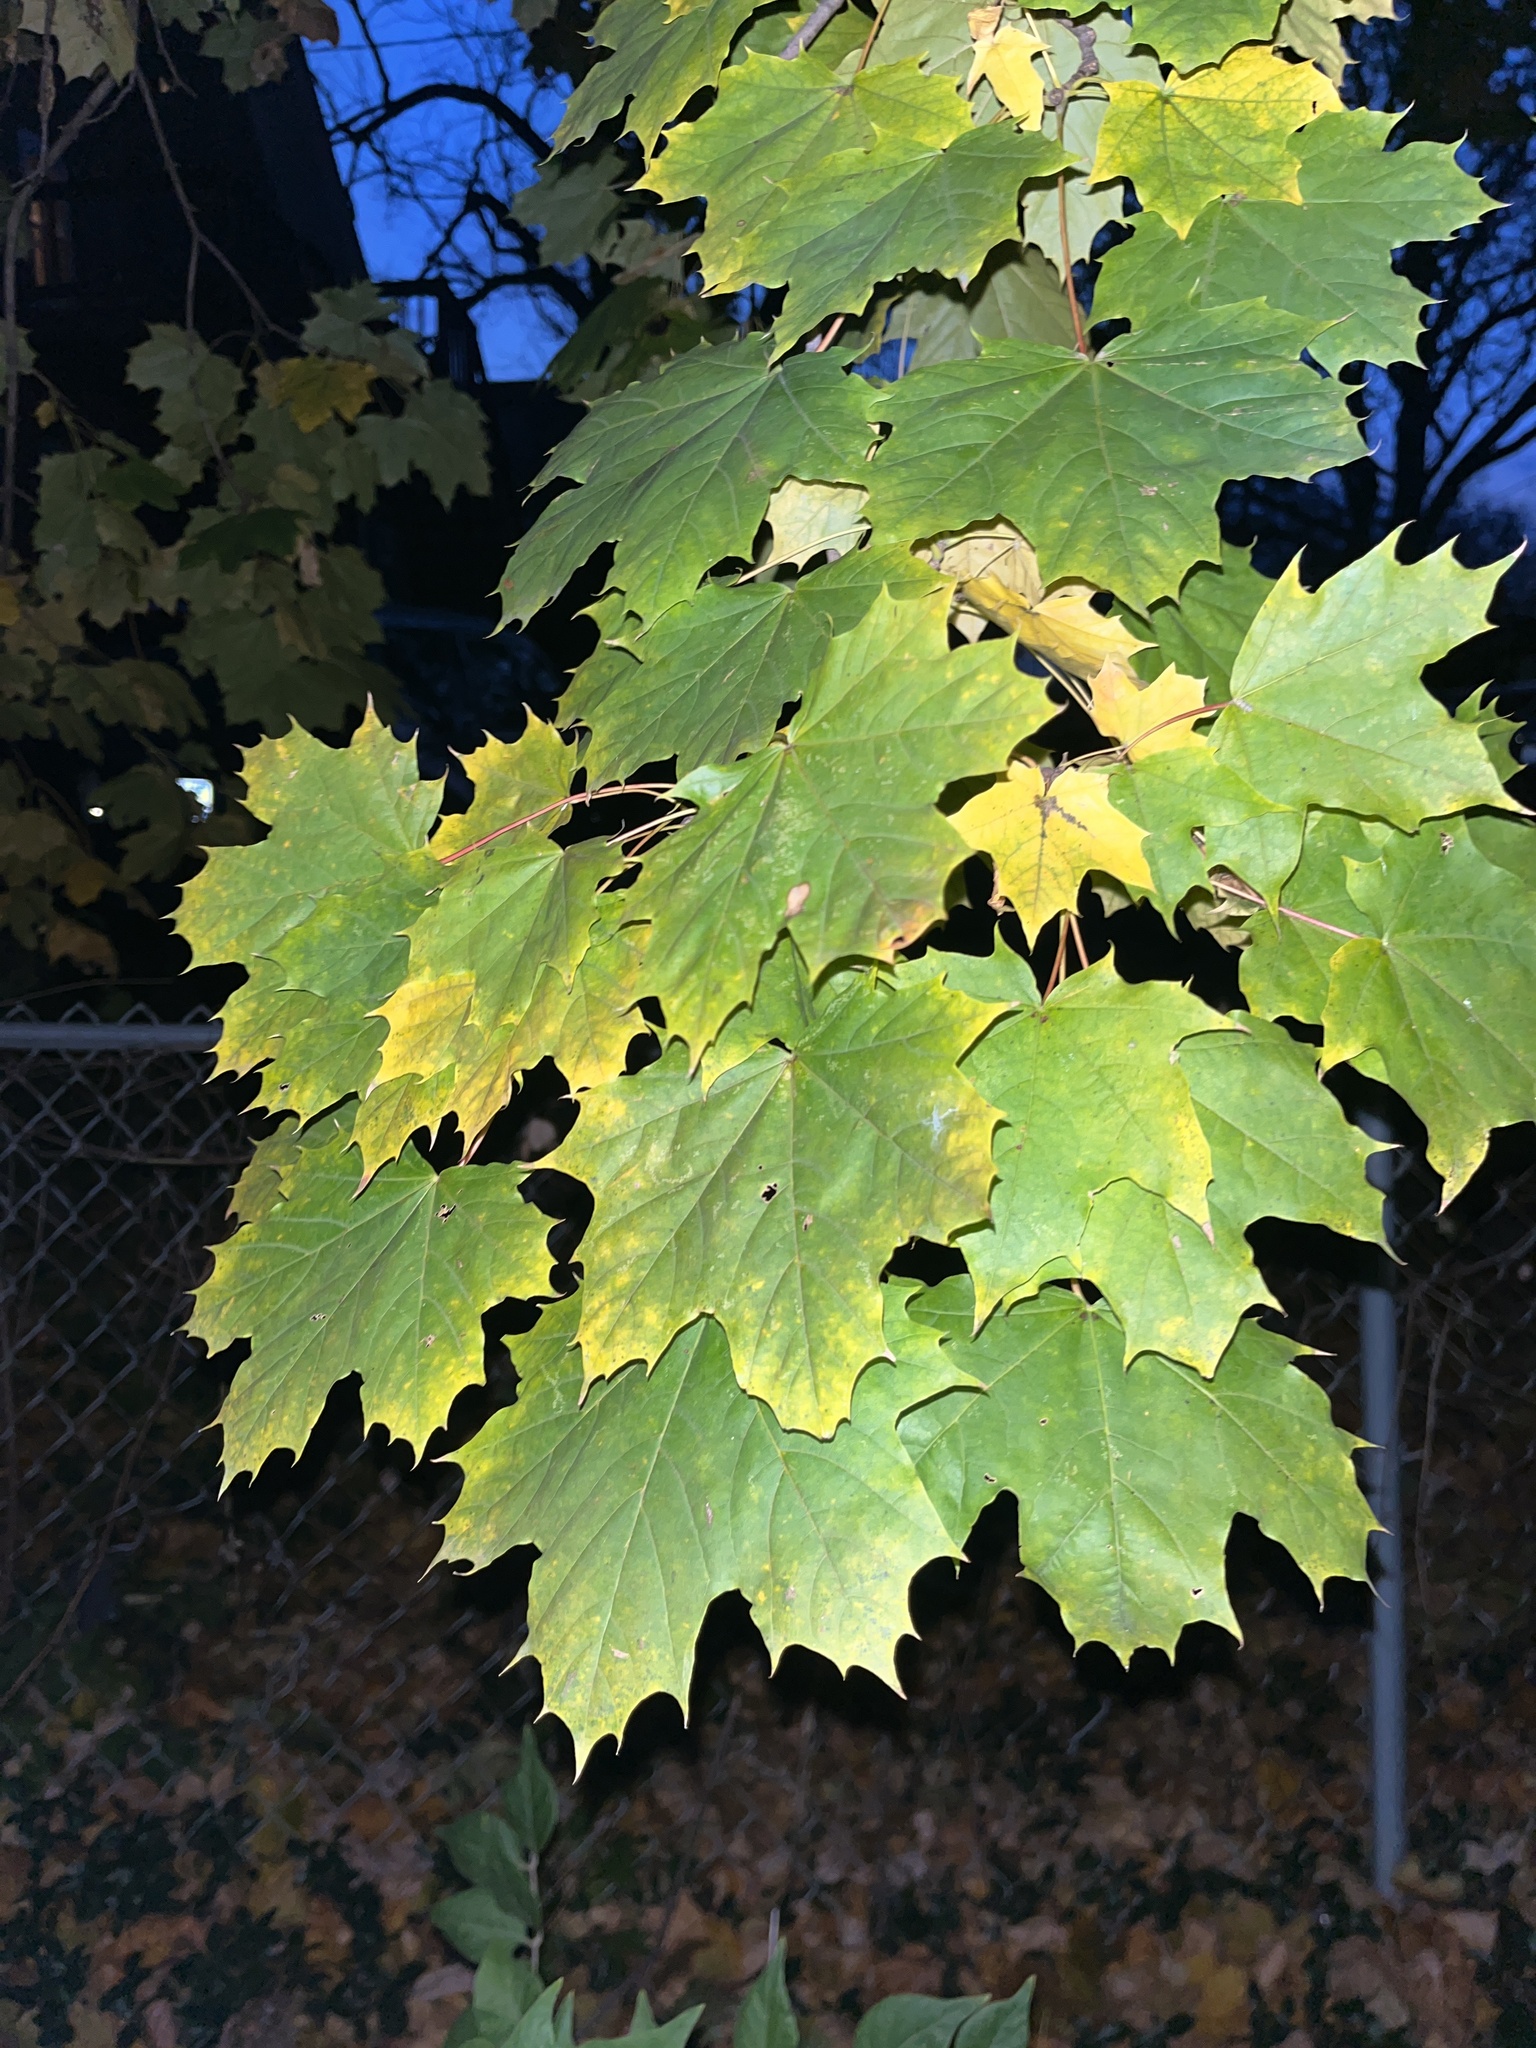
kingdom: Plantae
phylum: Tracheophyta
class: Magnoliopsida
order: Sapindales
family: Sapindaceae
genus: Acer
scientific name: Acer platanoides
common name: Norway maple
